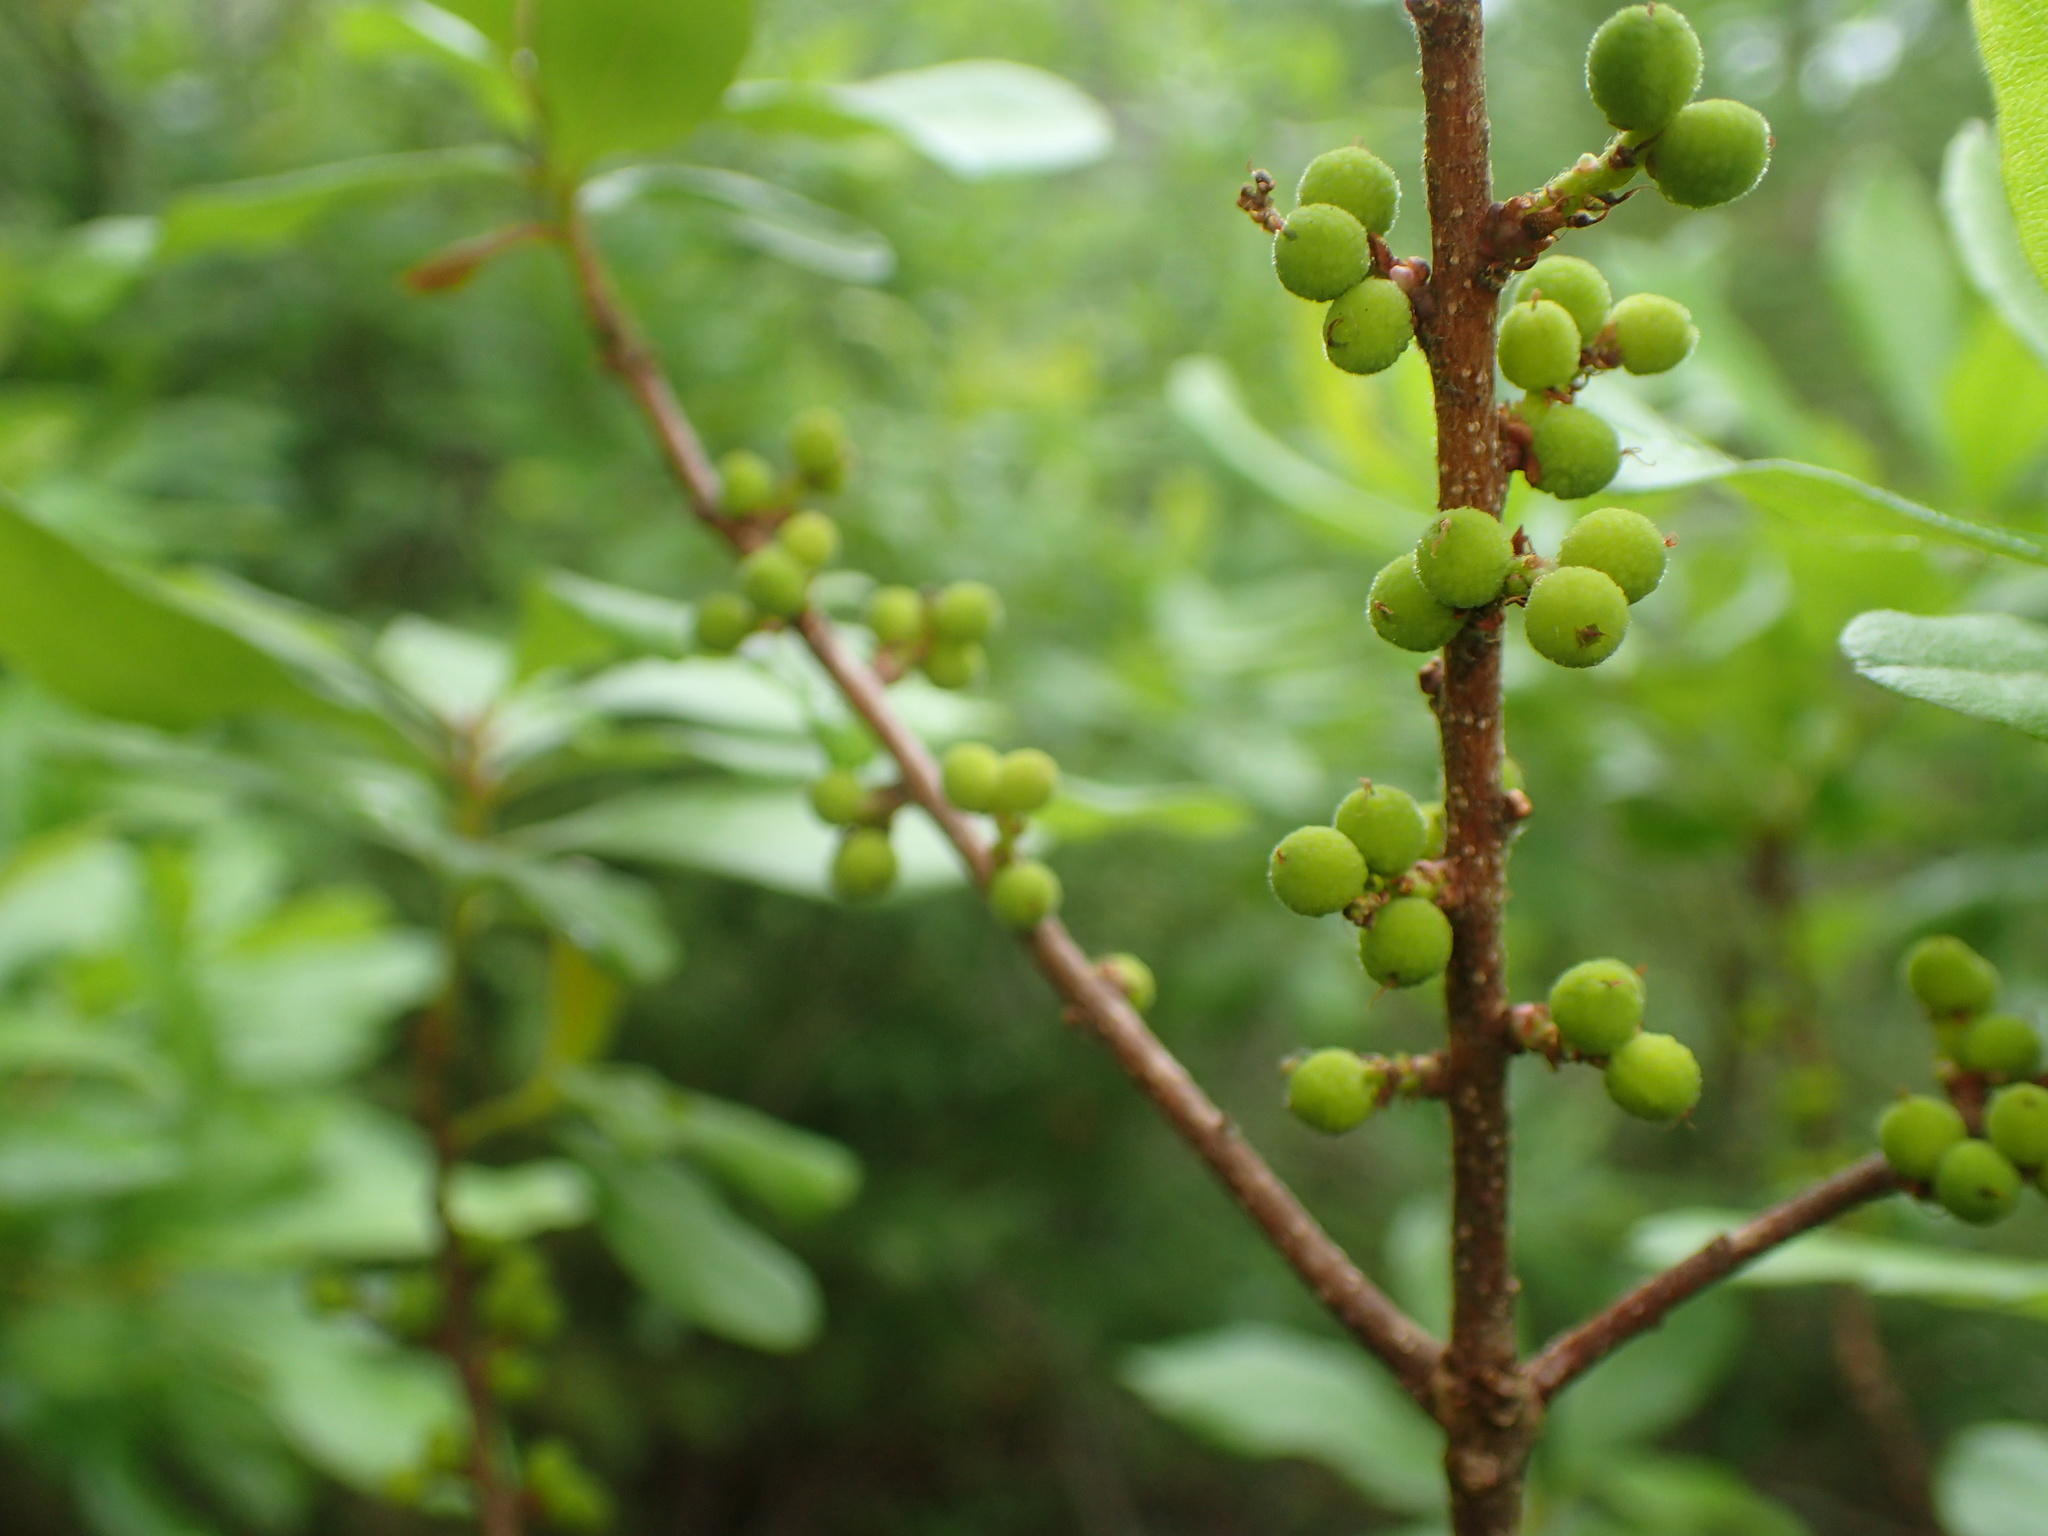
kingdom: Plantae
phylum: Tracheophyta
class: Magnoliopsida
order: Fagales
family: Myricaceae
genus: Morella
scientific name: Morella pensylvanica
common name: Northern bayberry
